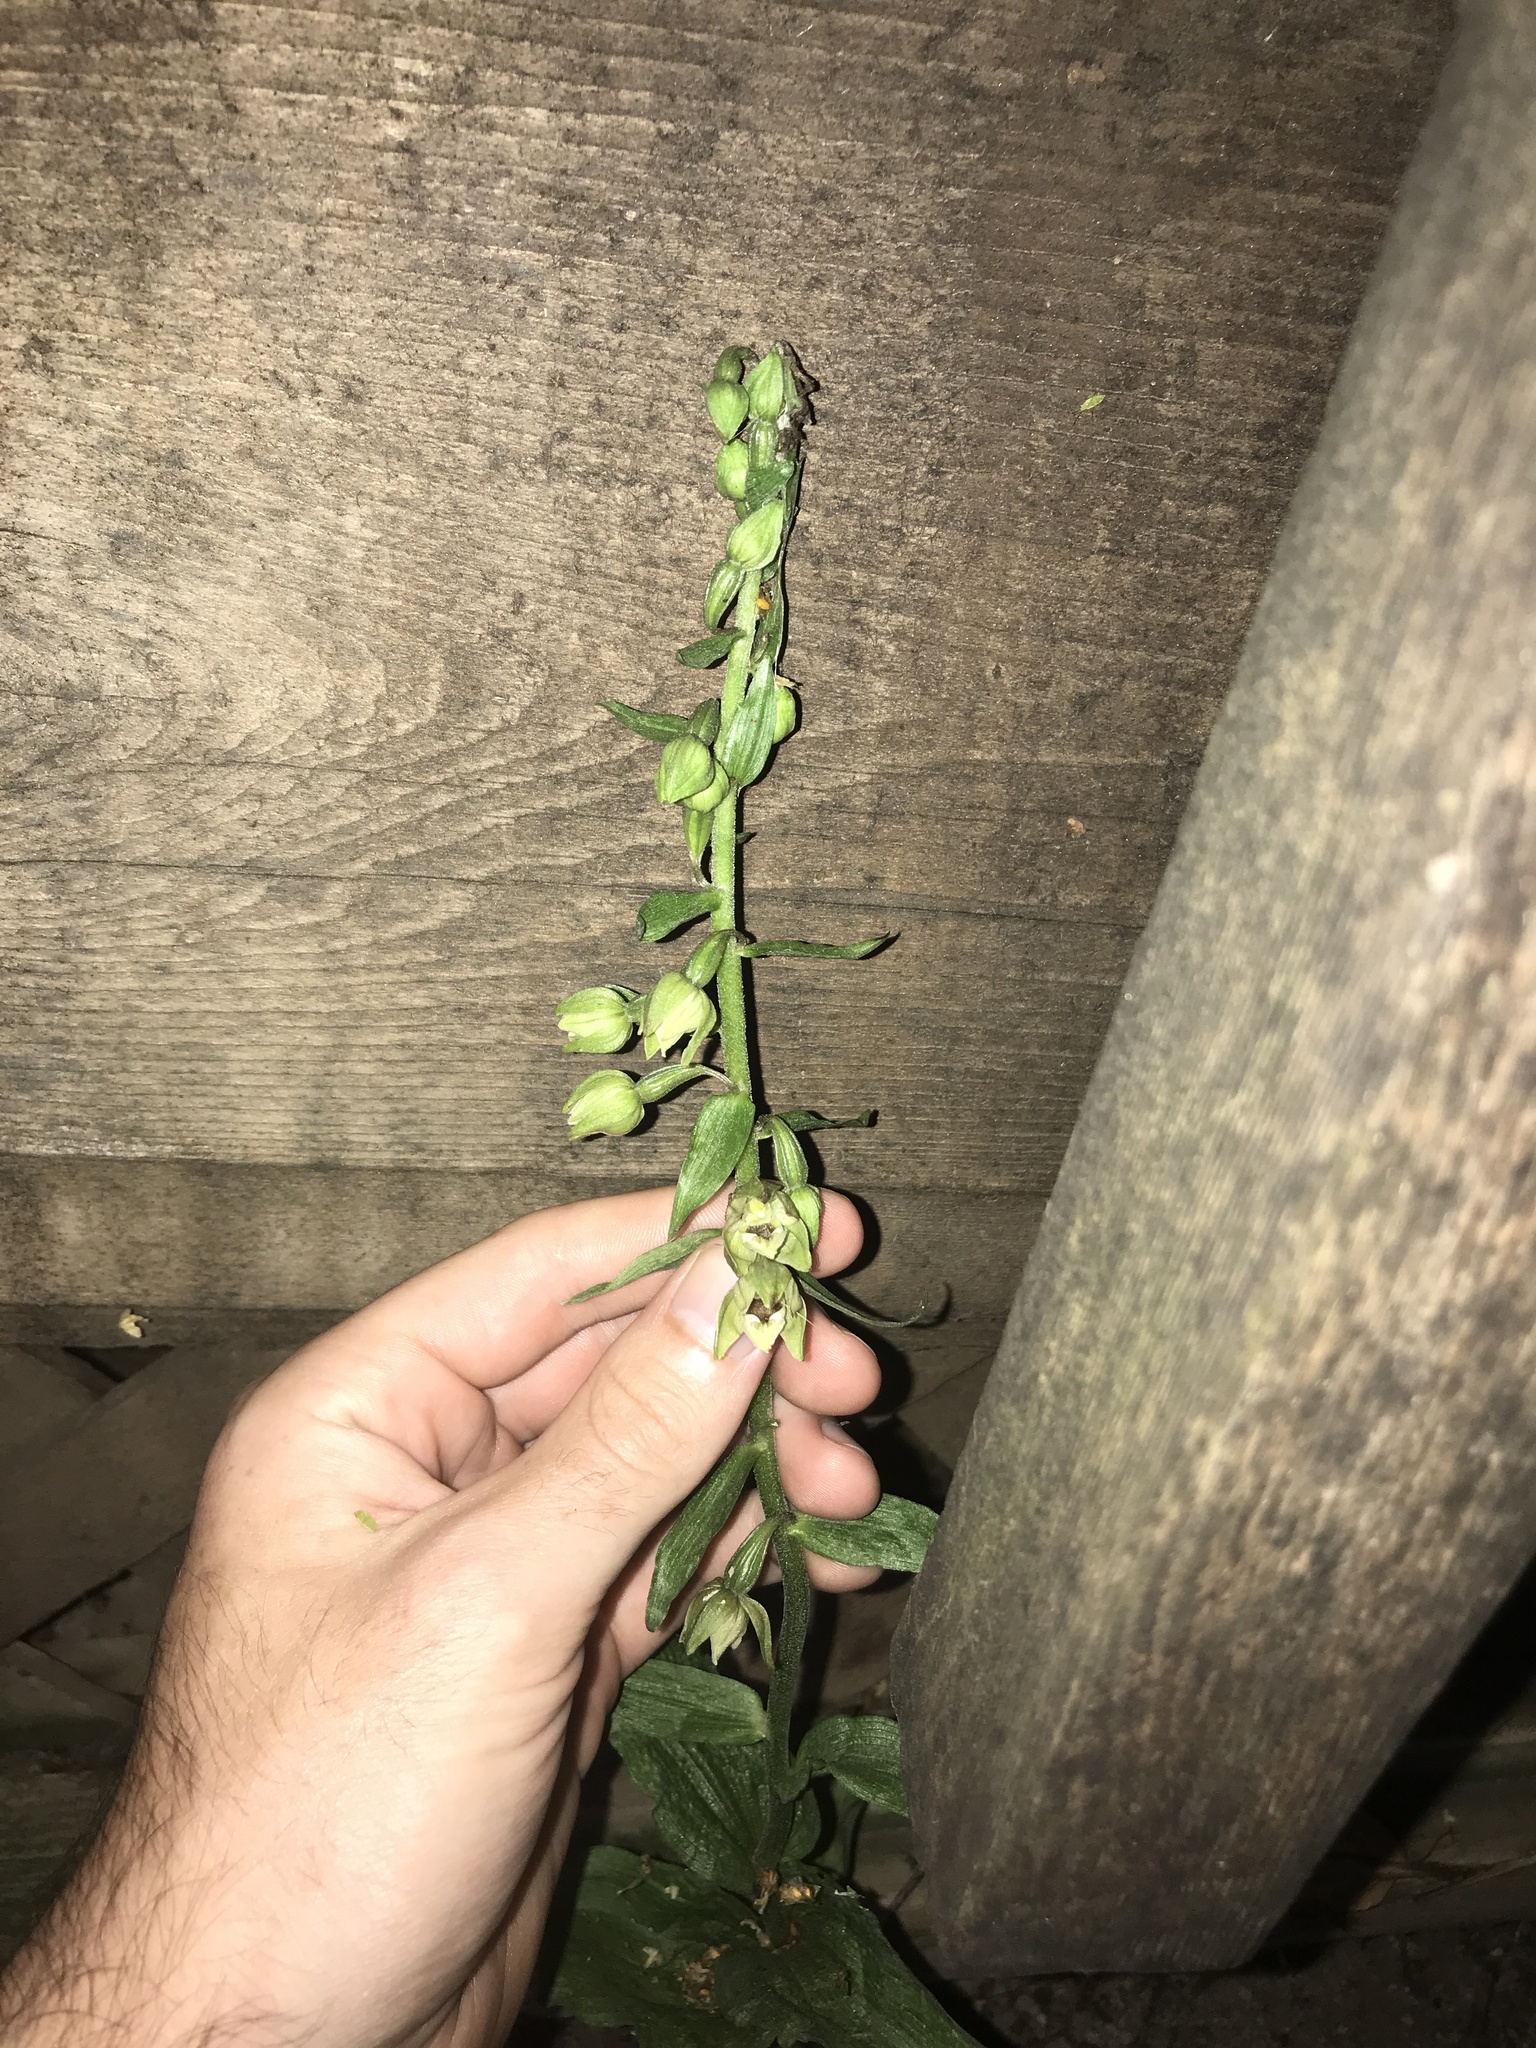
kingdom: Plantae
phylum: Tracheophyta
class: Liliopsida
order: Asparagales
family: Orchidaceae
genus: Epipactis
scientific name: Epipactis helleborine
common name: Broad-leaved helleborine
